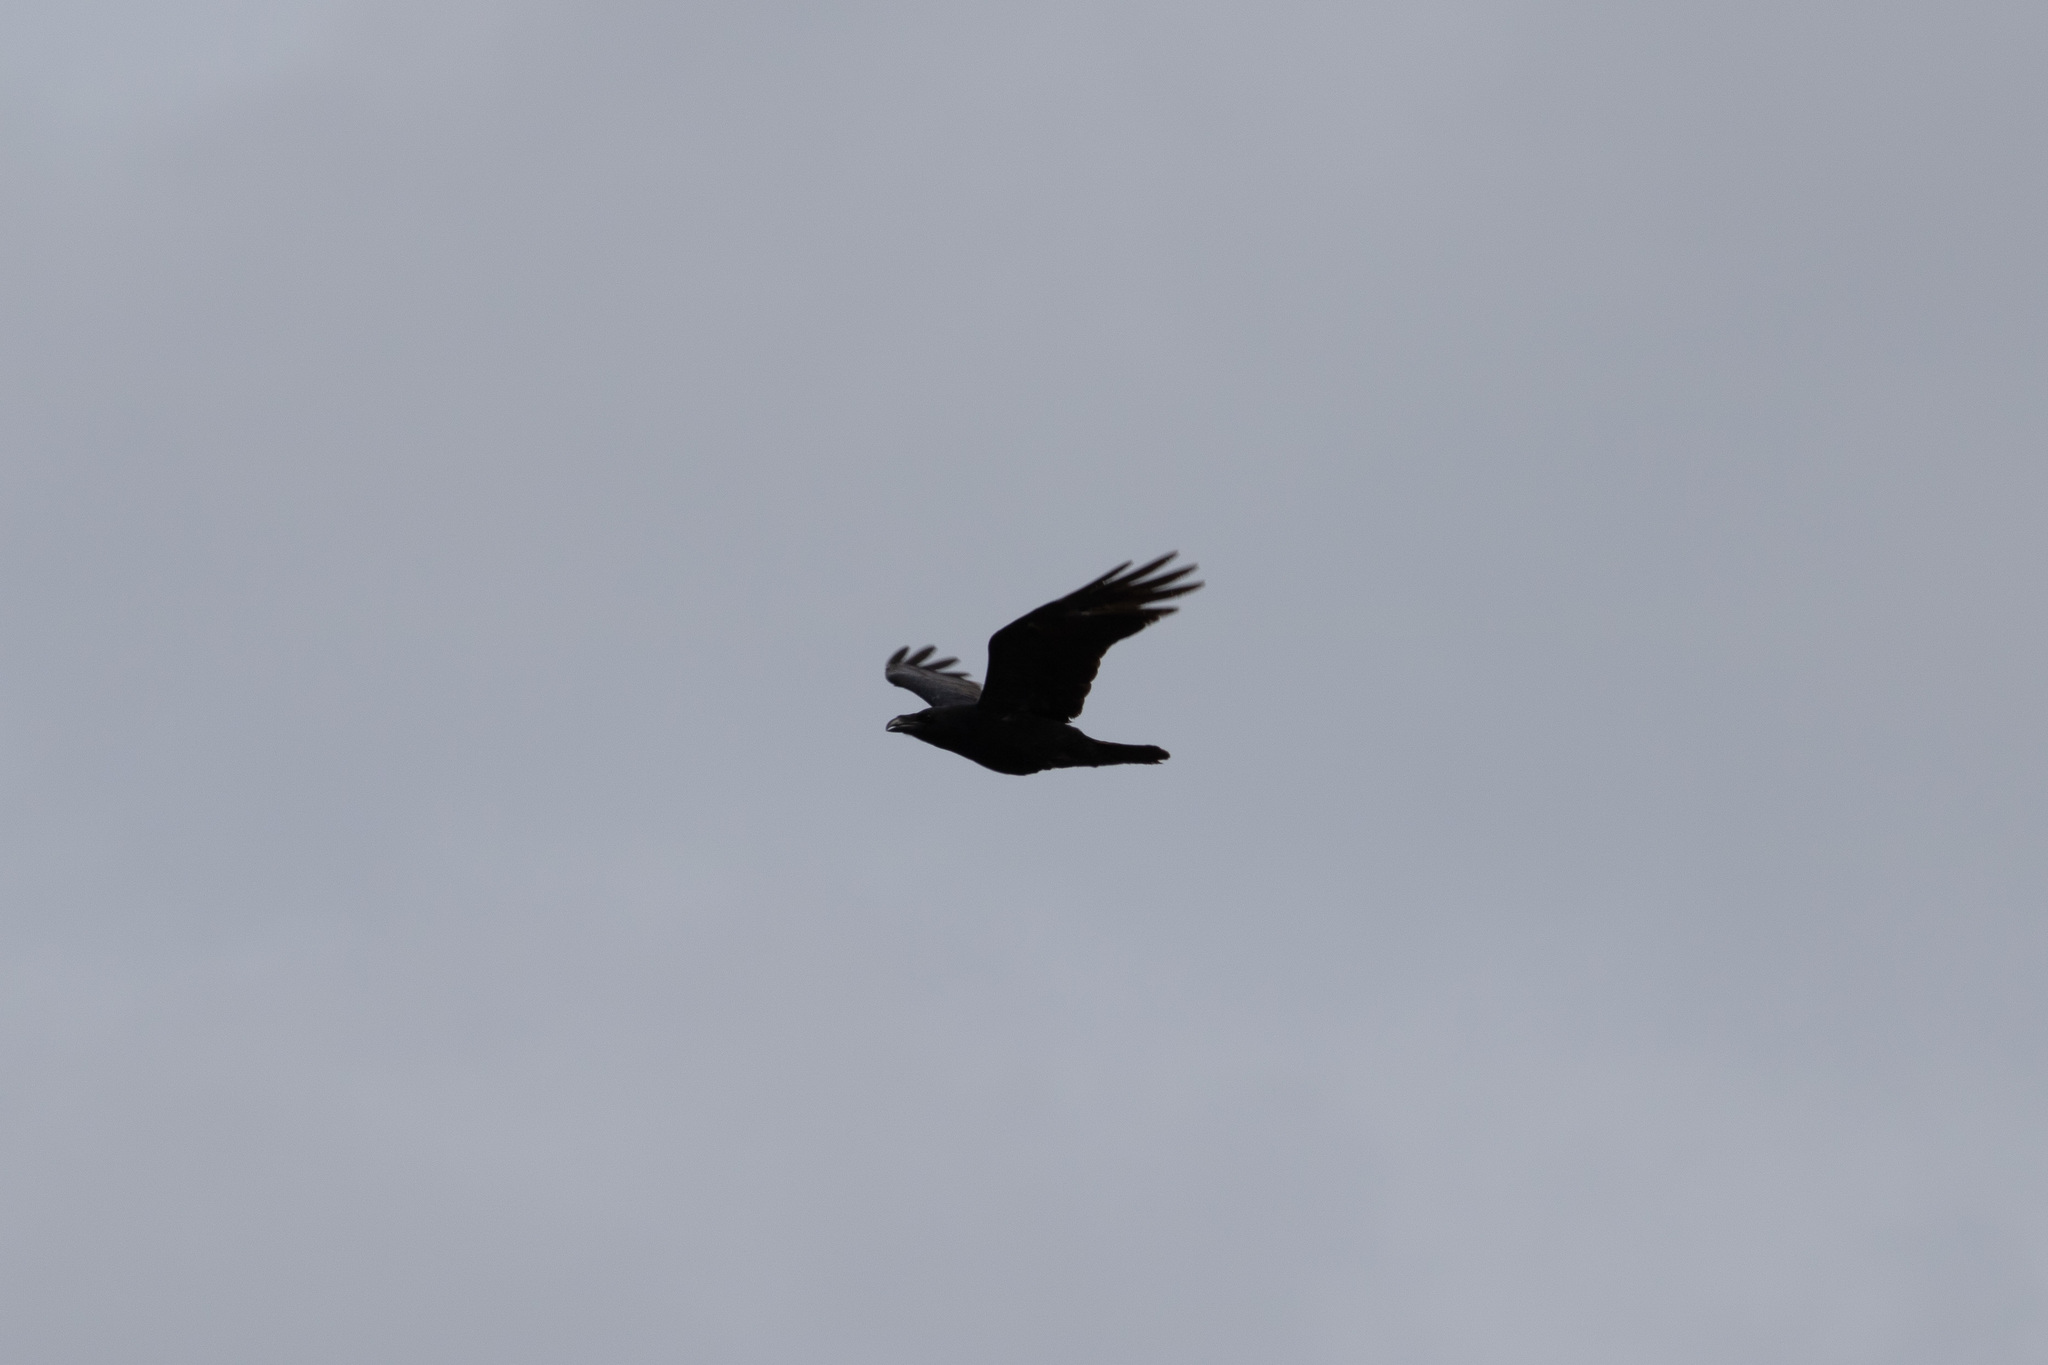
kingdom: Animalia
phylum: Chordata
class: Aves
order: Passeriformes
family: Corvidae
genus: Corvus
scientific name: Corvus corax
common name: Common raven
